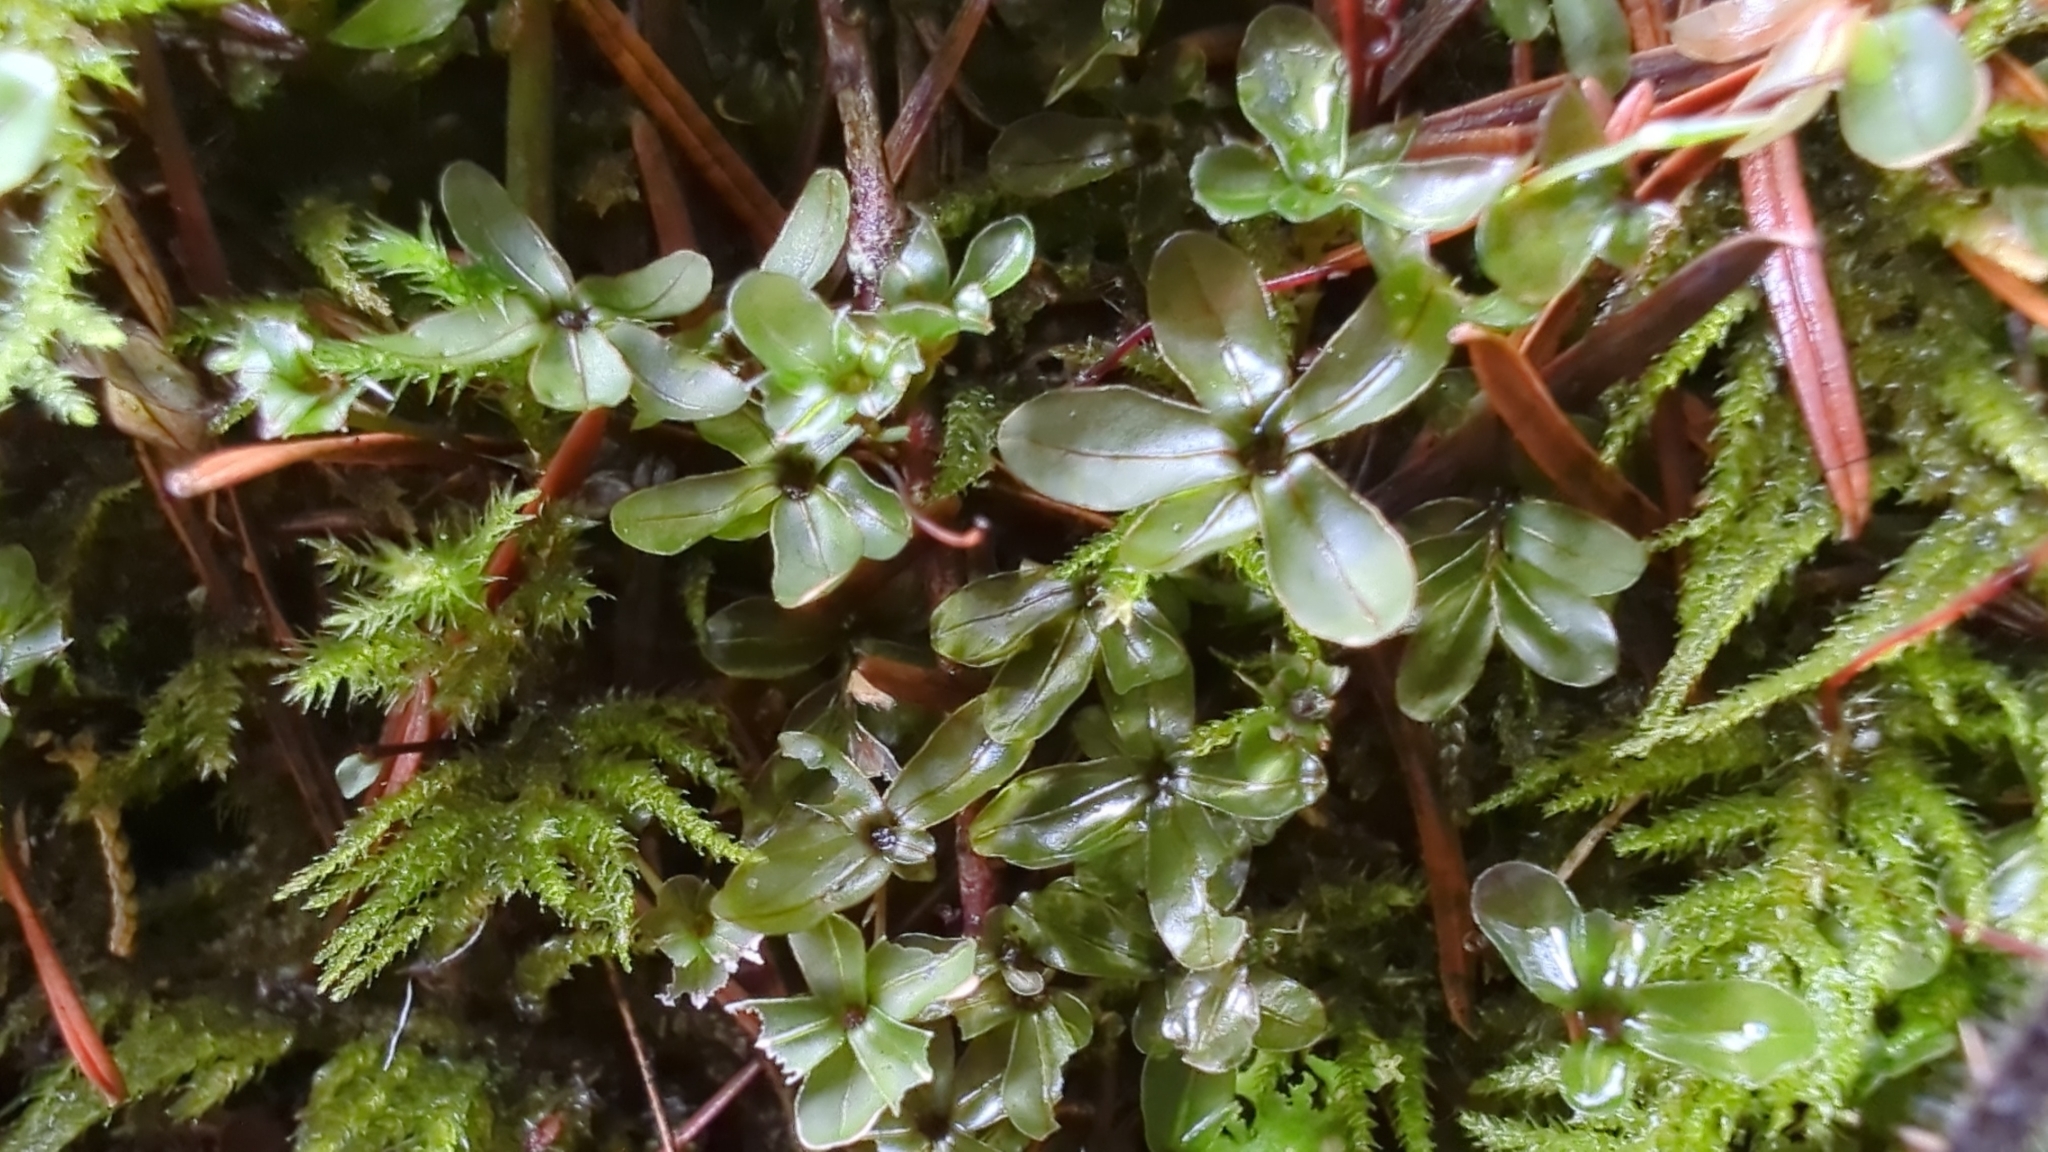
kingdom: Plantae
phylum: Bryophyta
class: Bryopsida
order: Bryales
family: Mniaceae
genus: Rhizomnium
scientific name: Rhizomnium glabrescens
